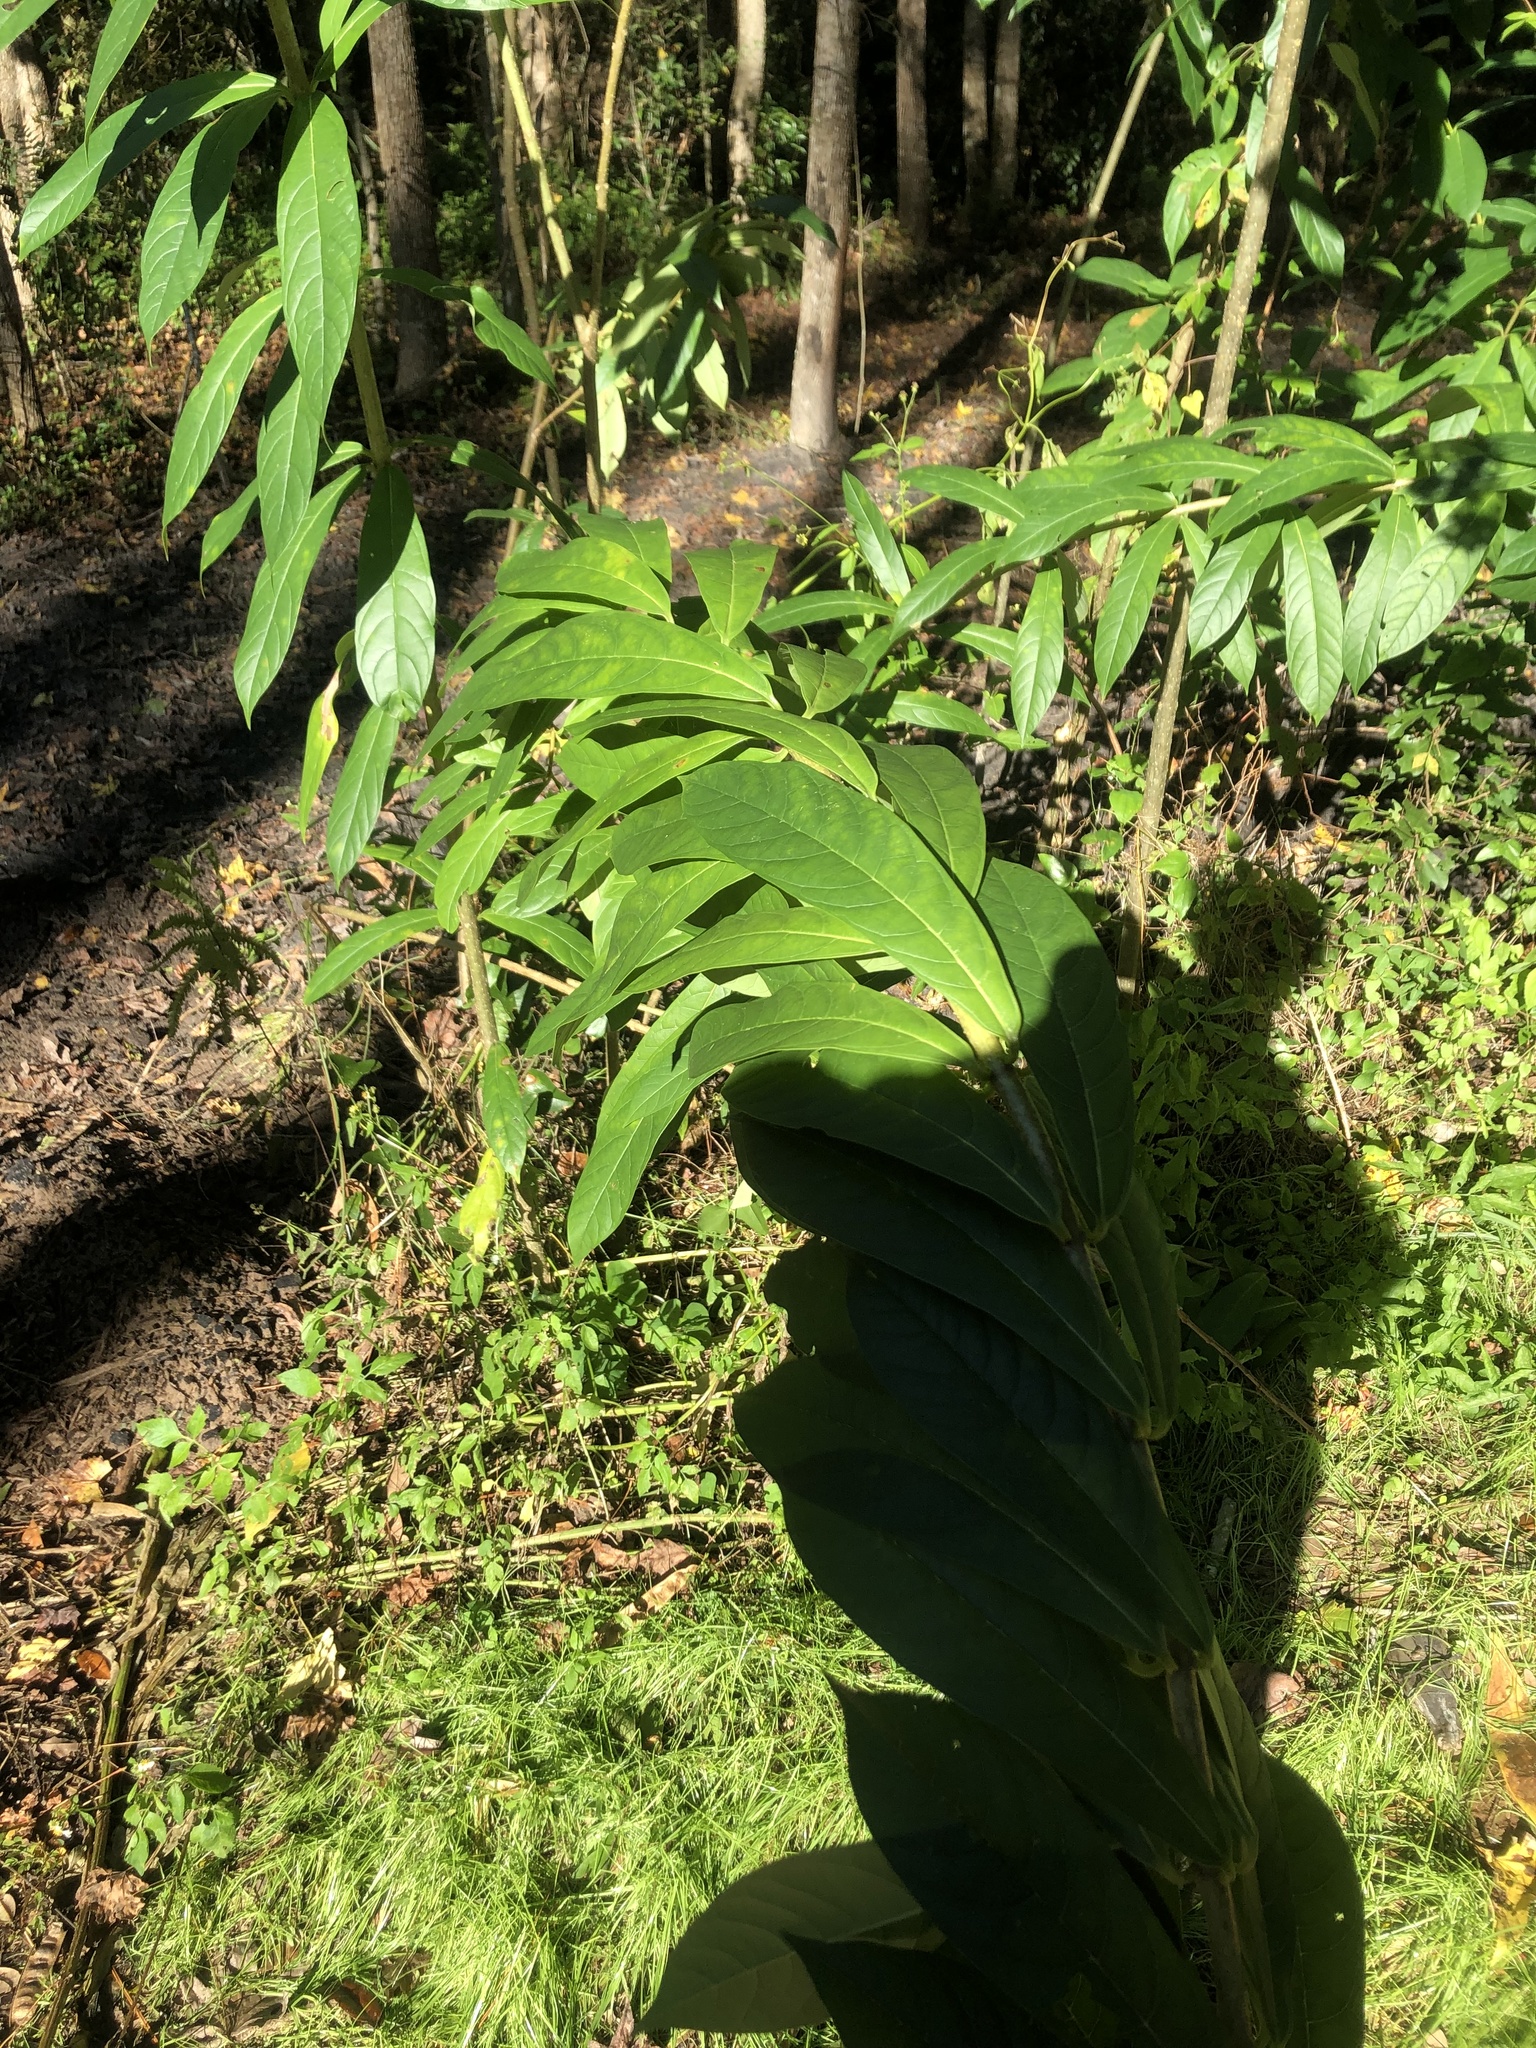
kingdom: Plantae
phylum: Tracheophyta
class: Magnoliopsida
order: Lamiales
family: Lamiaceae
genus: Clerodendrum
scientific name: Clerodendrum indicum
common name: Turk's turbin
